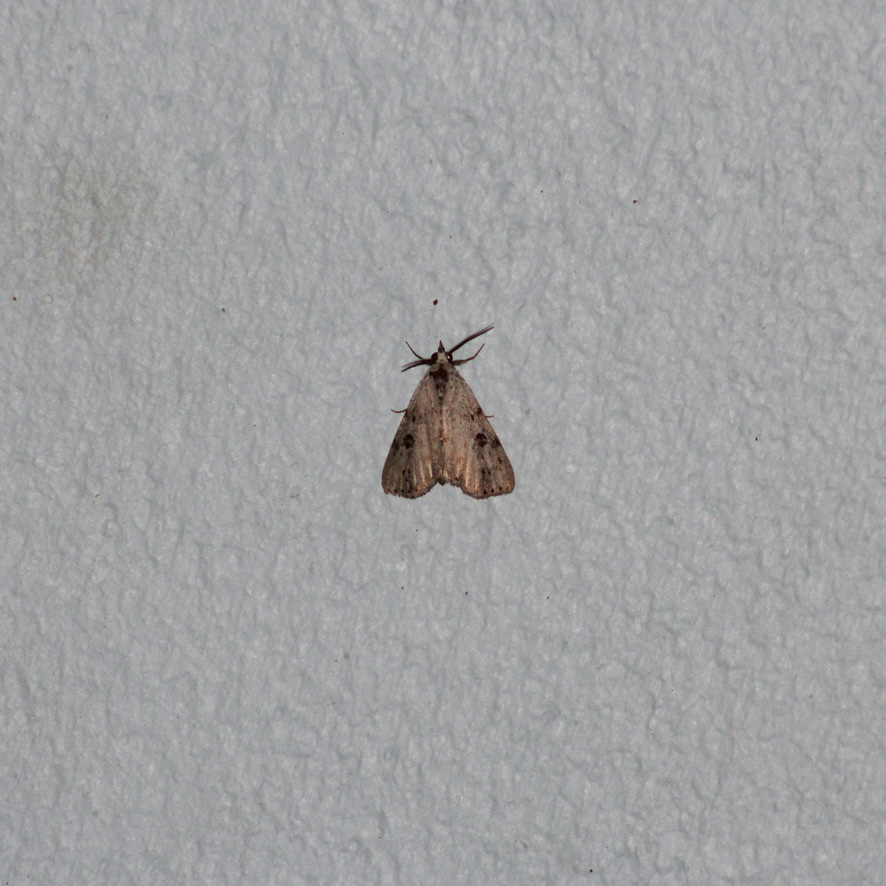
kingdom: Animalia
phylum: Arthropoda
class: Insecta
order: Lepidoptera
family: Erebidae
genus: Acanthermia
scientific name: Acanthermia concatenalis
